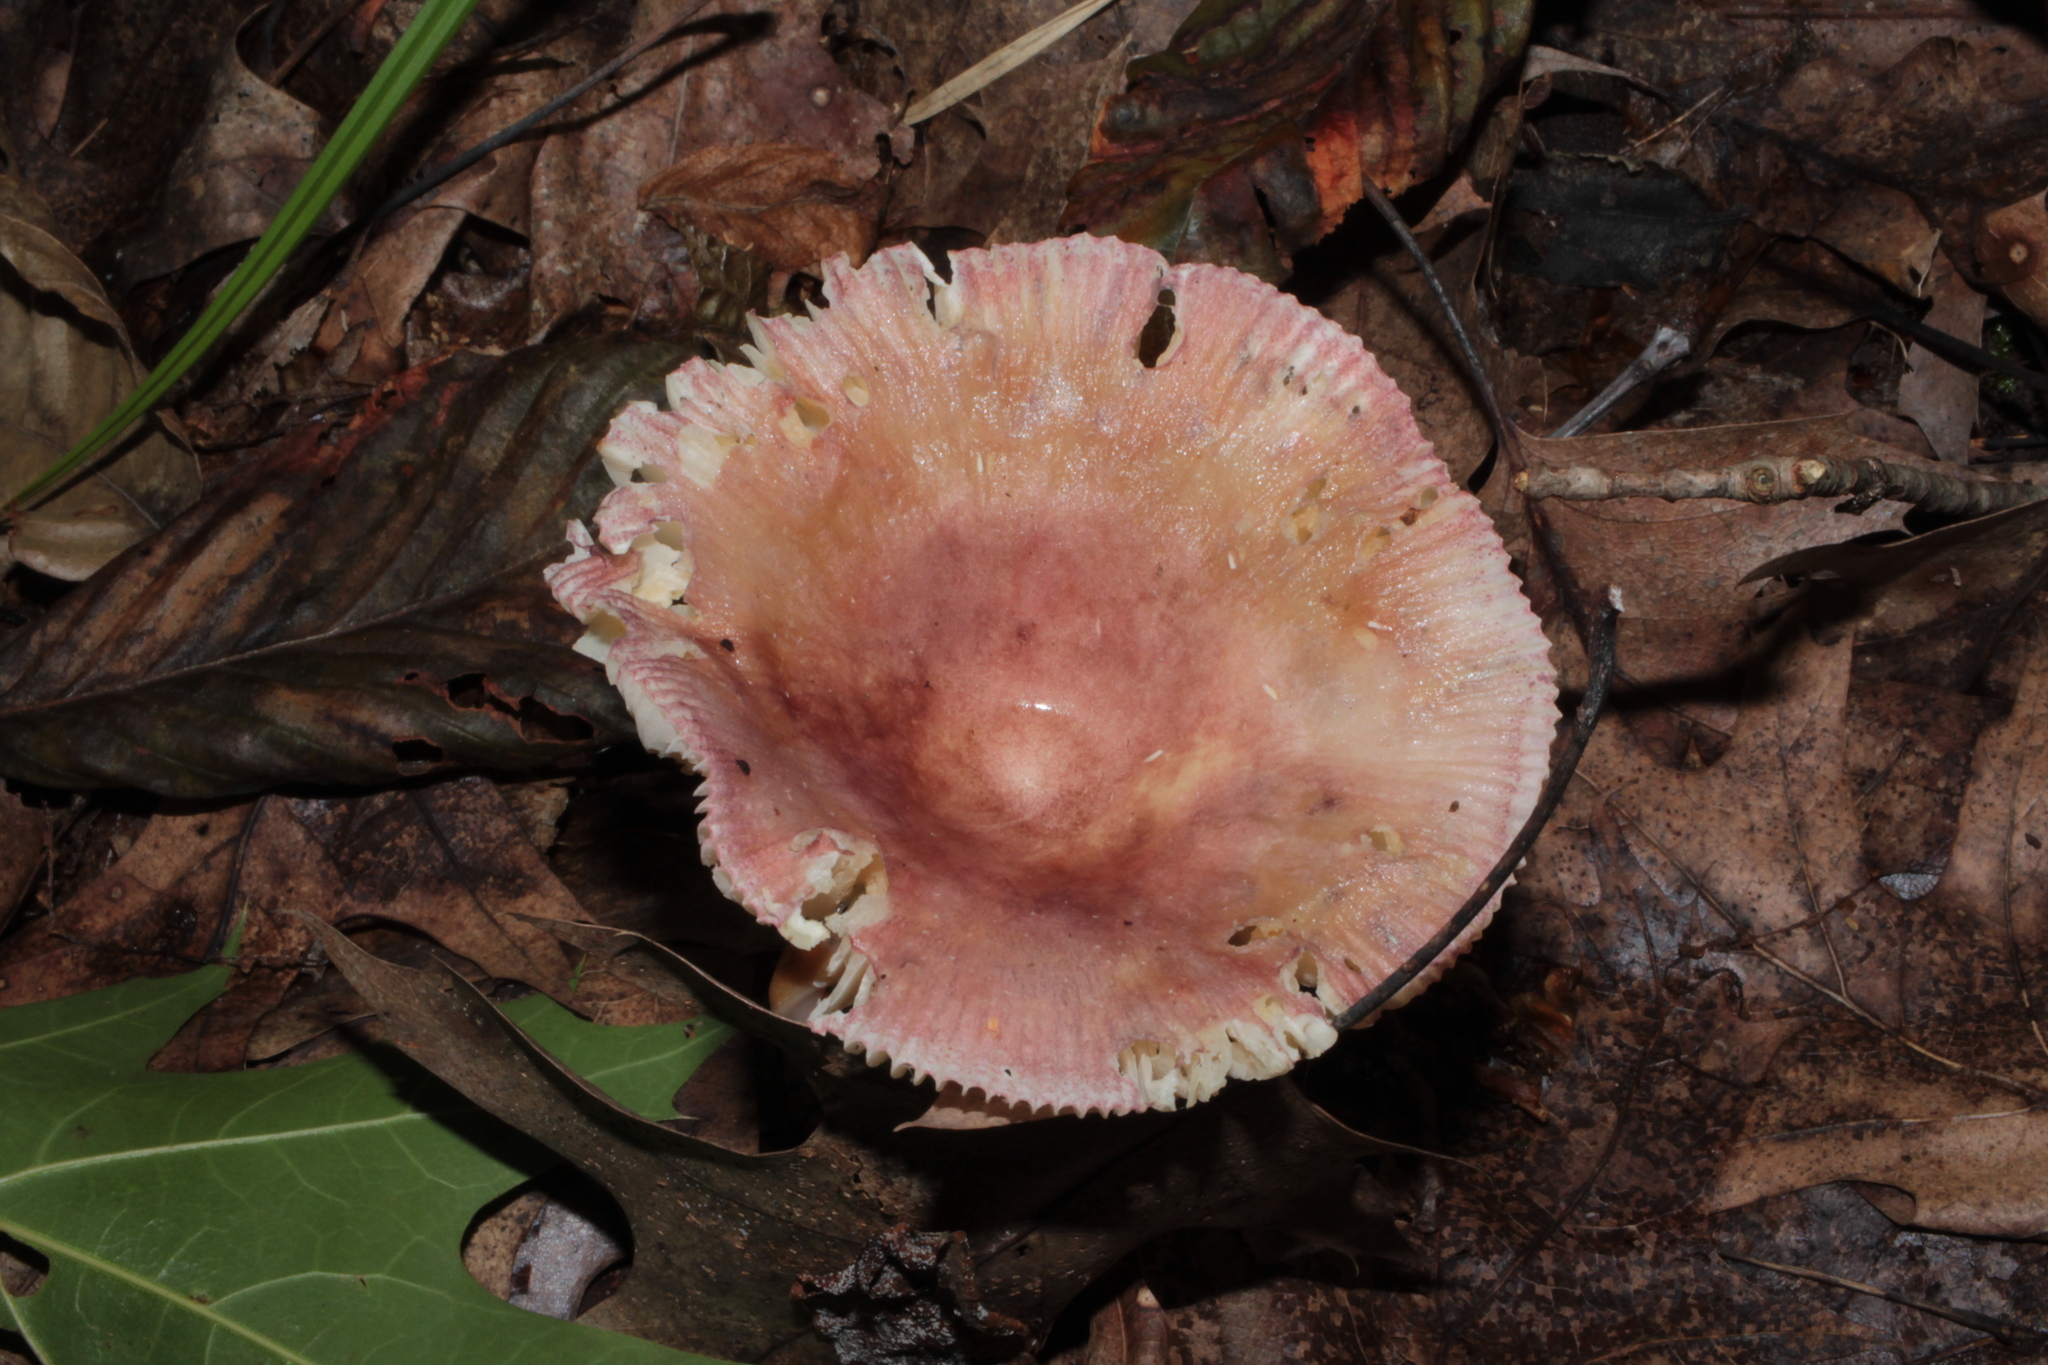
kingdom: Fungi
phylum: Basidiomycota
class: Agaricomycetes
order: Russulales
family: Russulaceae
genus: Russula
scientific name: Russula mariae
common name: Purple-bloom russula
